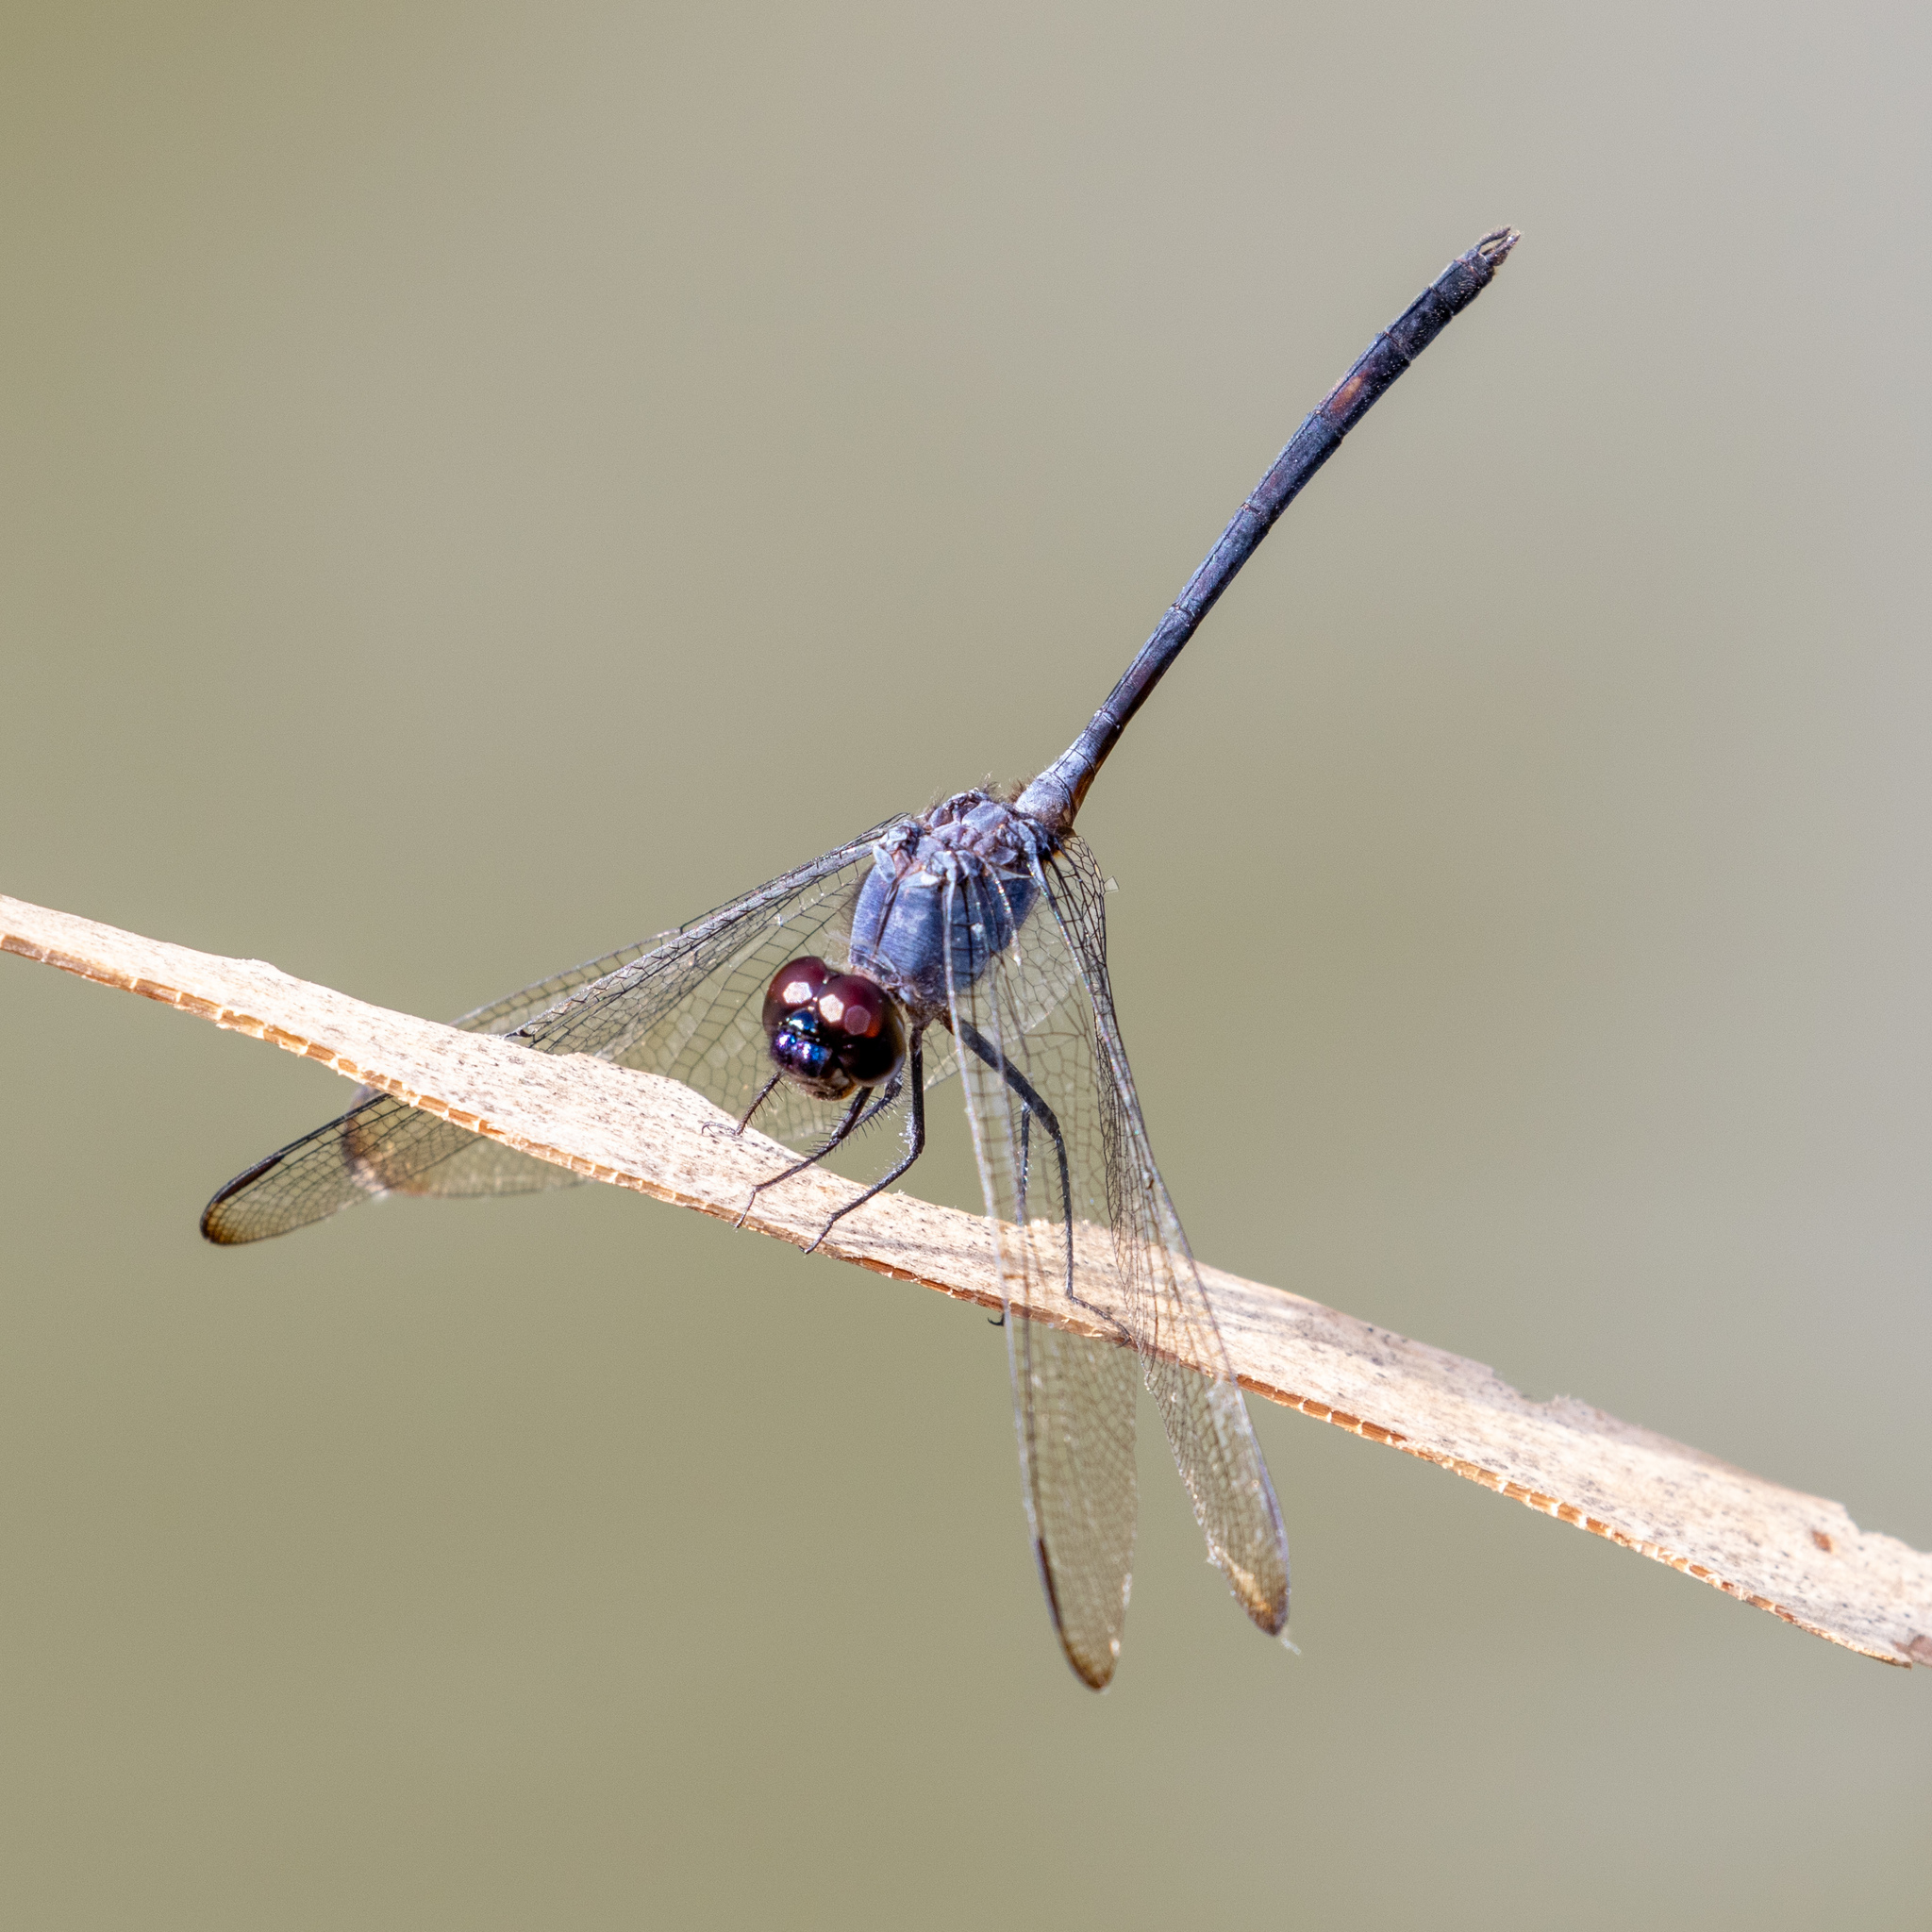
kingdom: Animalia
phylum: Arthropoda
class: Insecta
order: Odonata
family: Libellulidae
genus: Dythemis
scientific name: Dythemis nigrescens
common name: Black setwing
